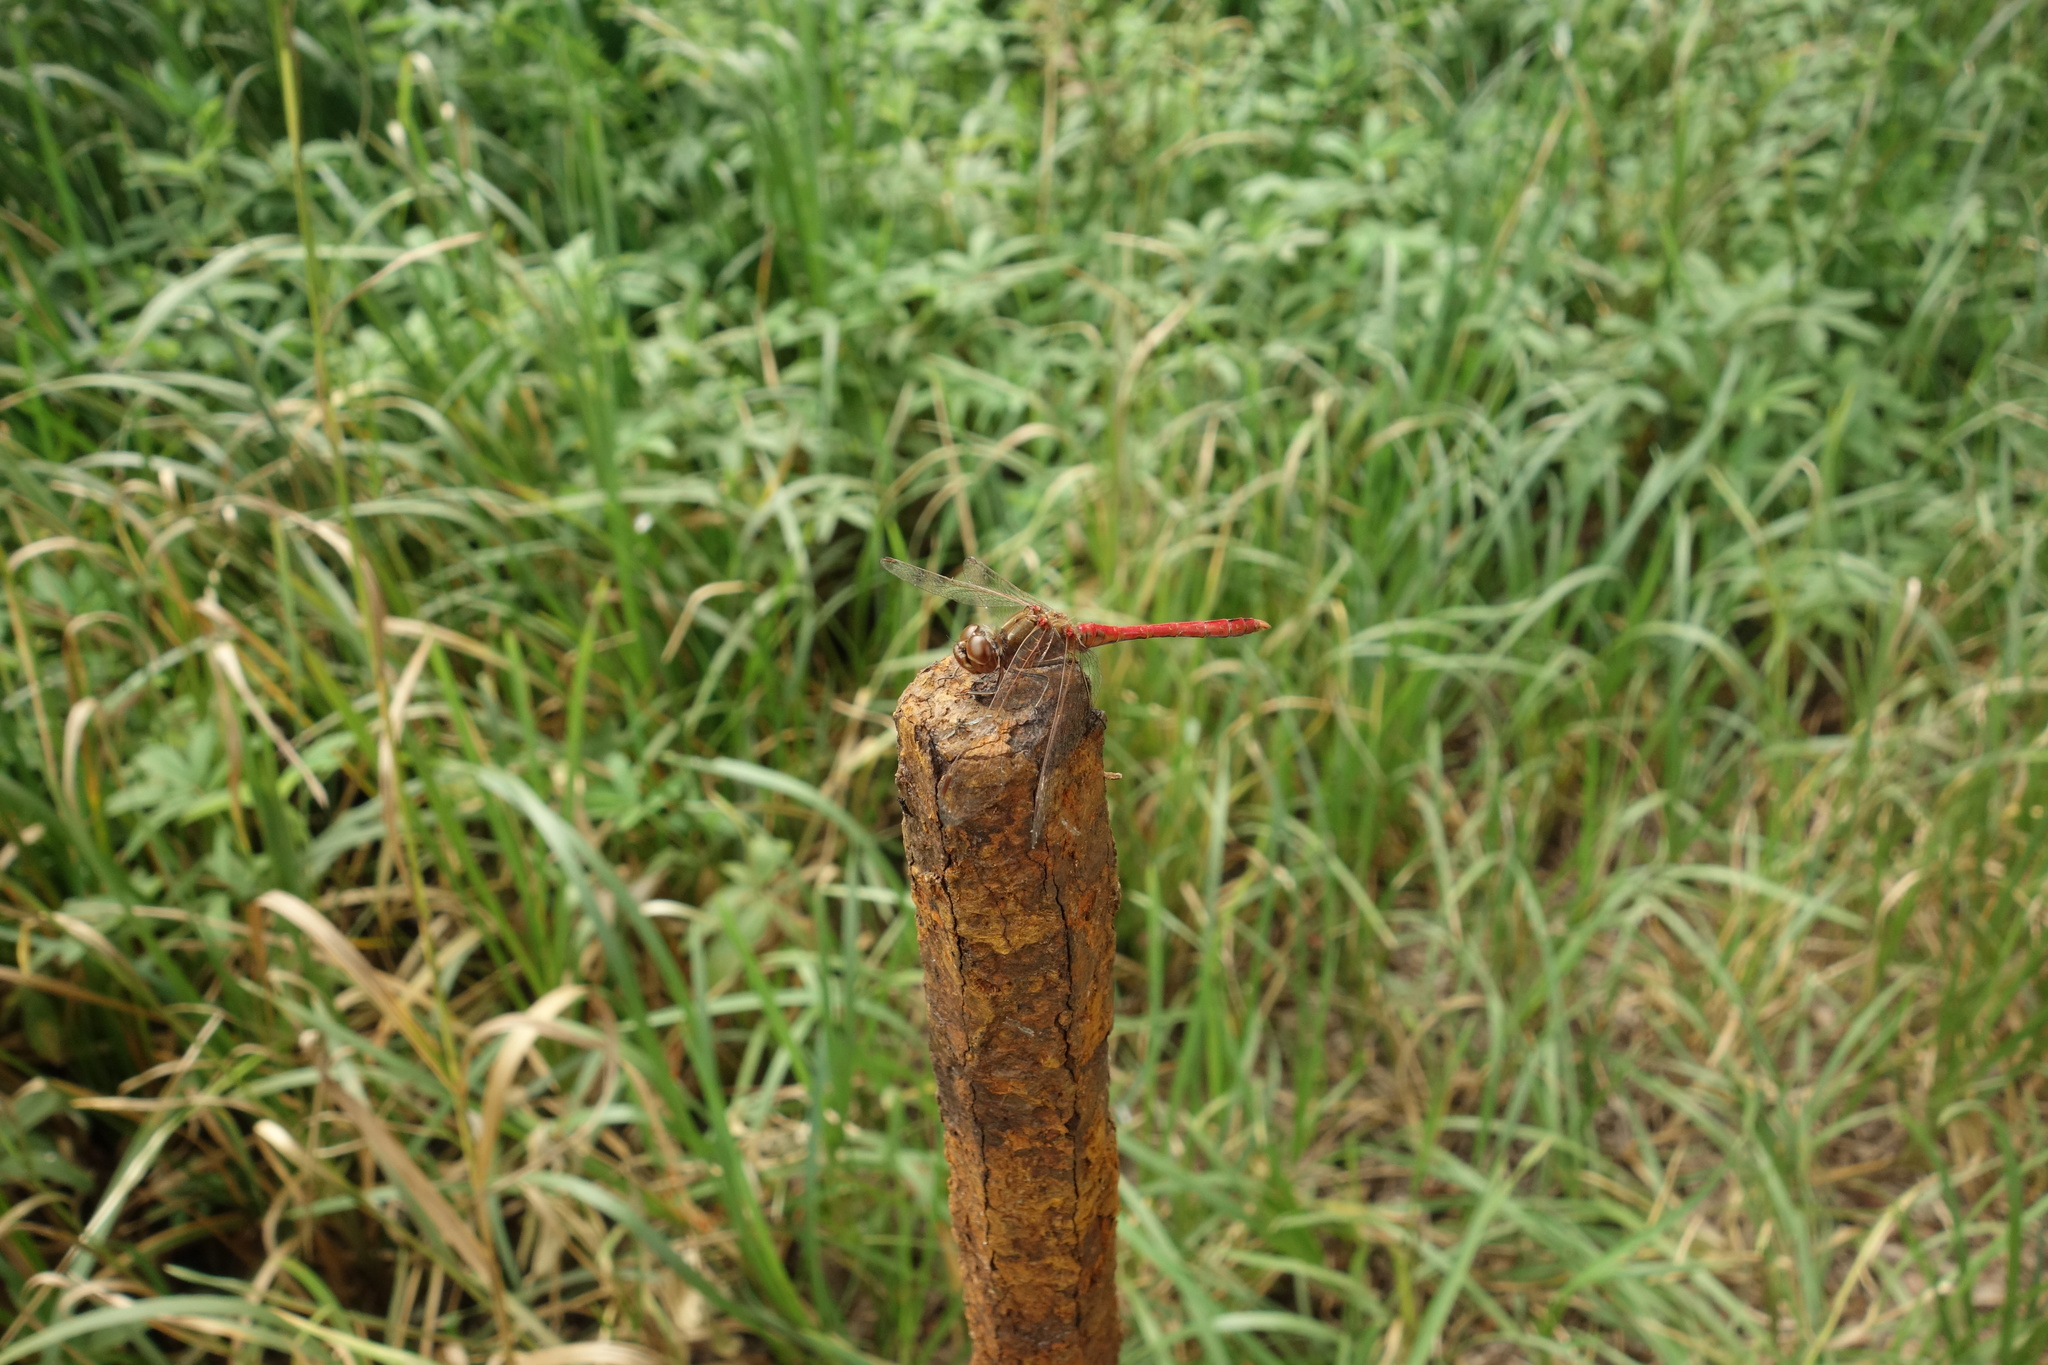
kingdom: Animalia
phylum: Arthropoda
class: Insecta
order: Odonata
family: Libellulidae
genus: Sympetrum
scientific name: Sympetrum vulgatum
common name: Vagrant darter
